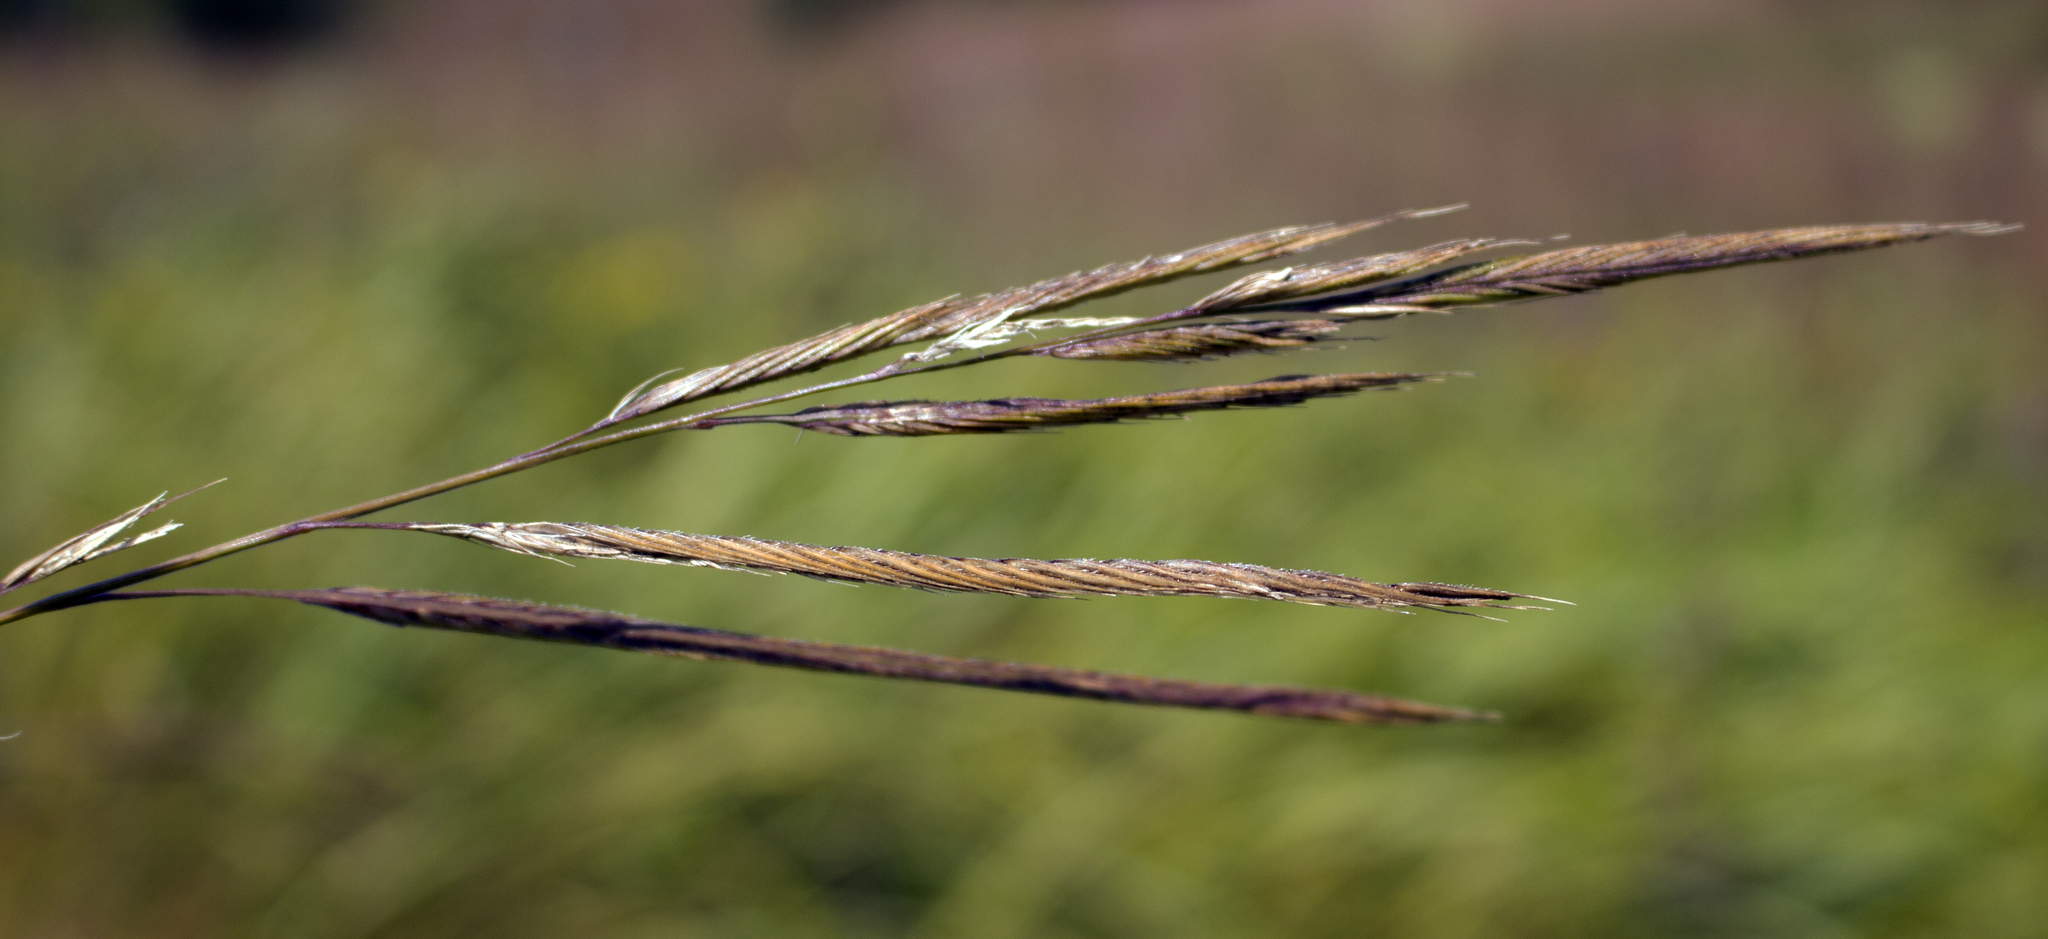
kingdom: Plantae
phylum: Tracheophyta
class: Liliopsida
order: Poales
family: Poaceae
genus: Sporobolus
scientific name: Sporobolus michauxianus
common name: Freshwater cordgrass
